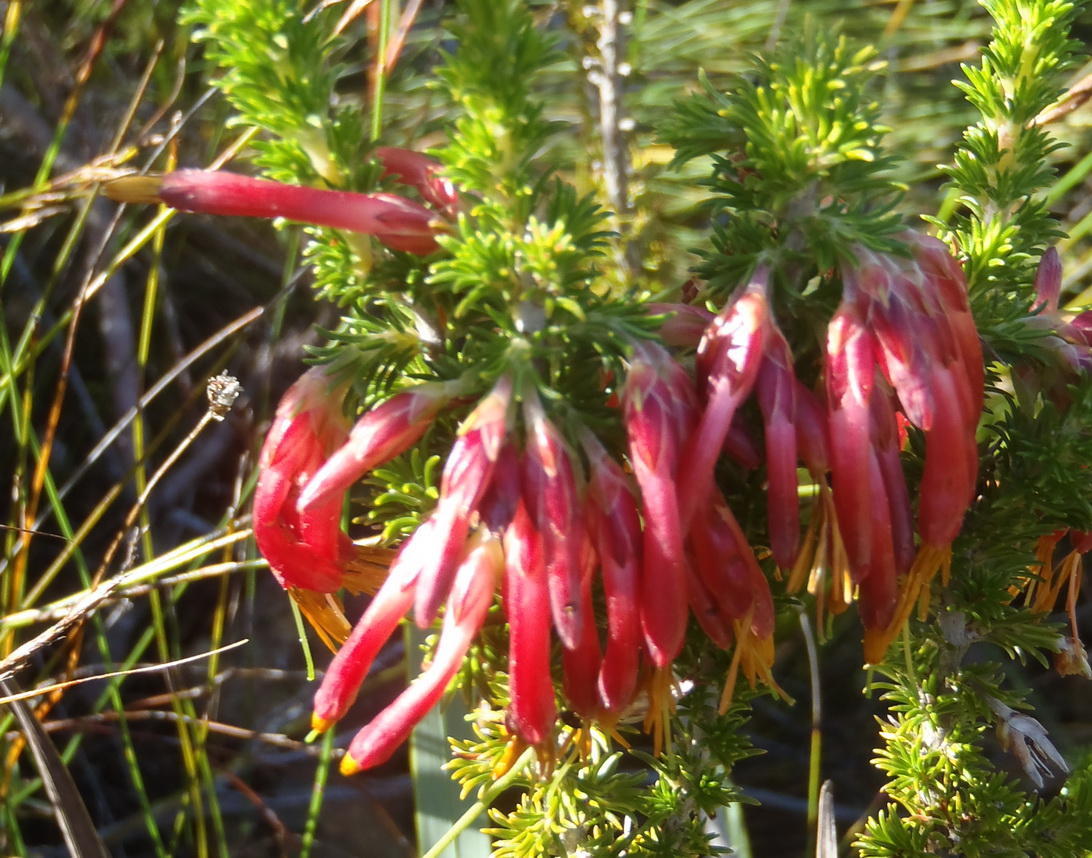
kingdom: Plantae
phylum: Tracheophyta
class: Magnoliopsida
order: Ericales
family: Ericaceae
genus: Erica
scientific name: Erica coccinea
